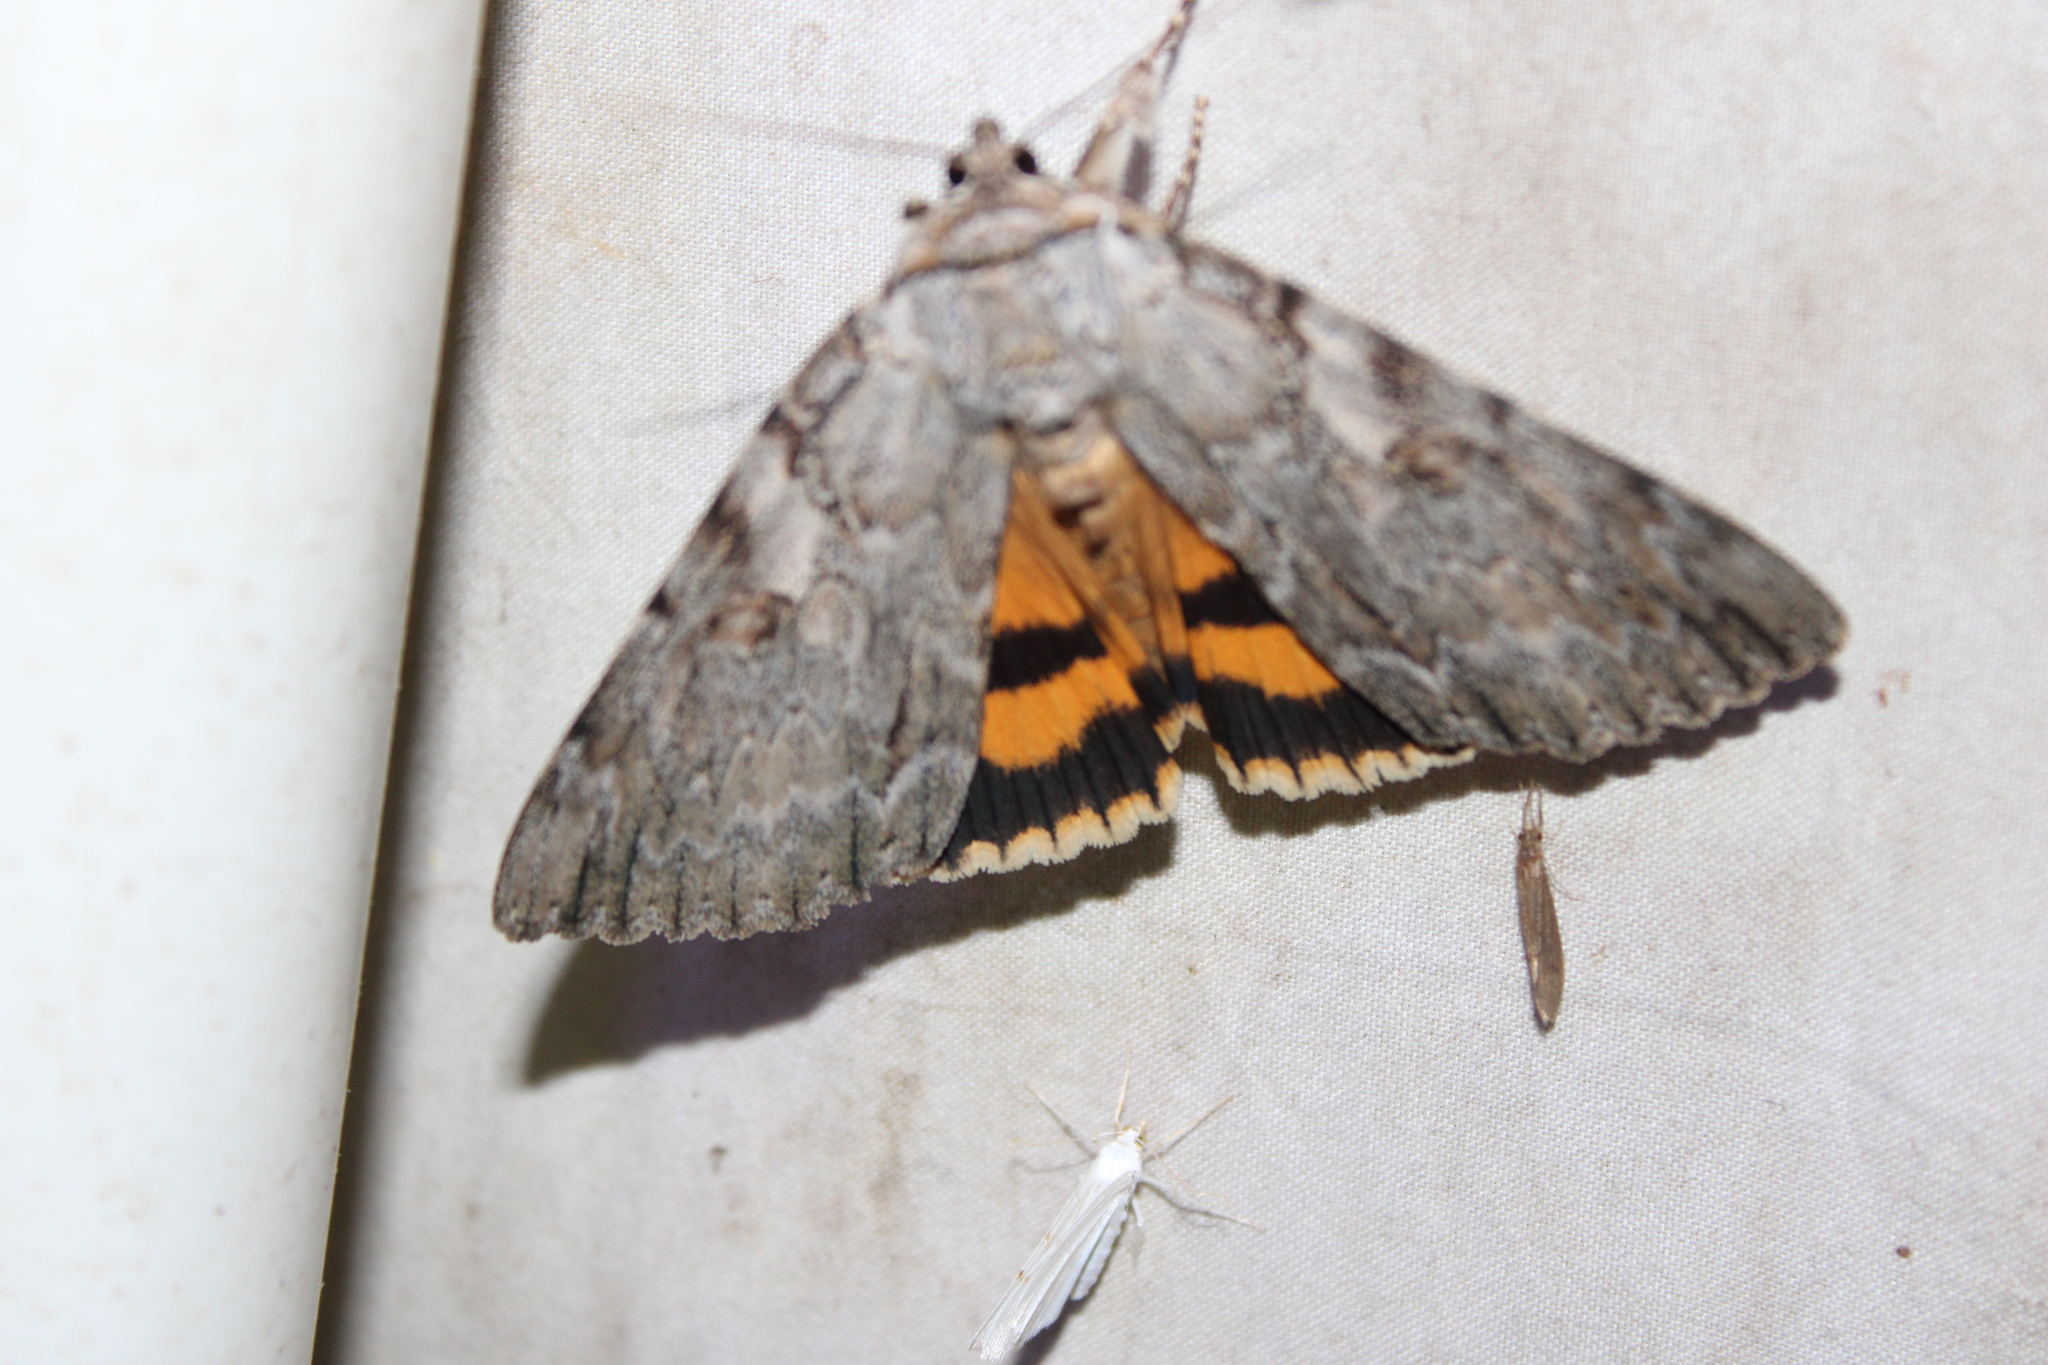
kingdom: Animalia
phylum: Arthropoda
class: Insecta
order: Lepidoptera
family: Erebidae
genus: Catocala
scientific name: Catocala subnata
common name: Youthful underwing
